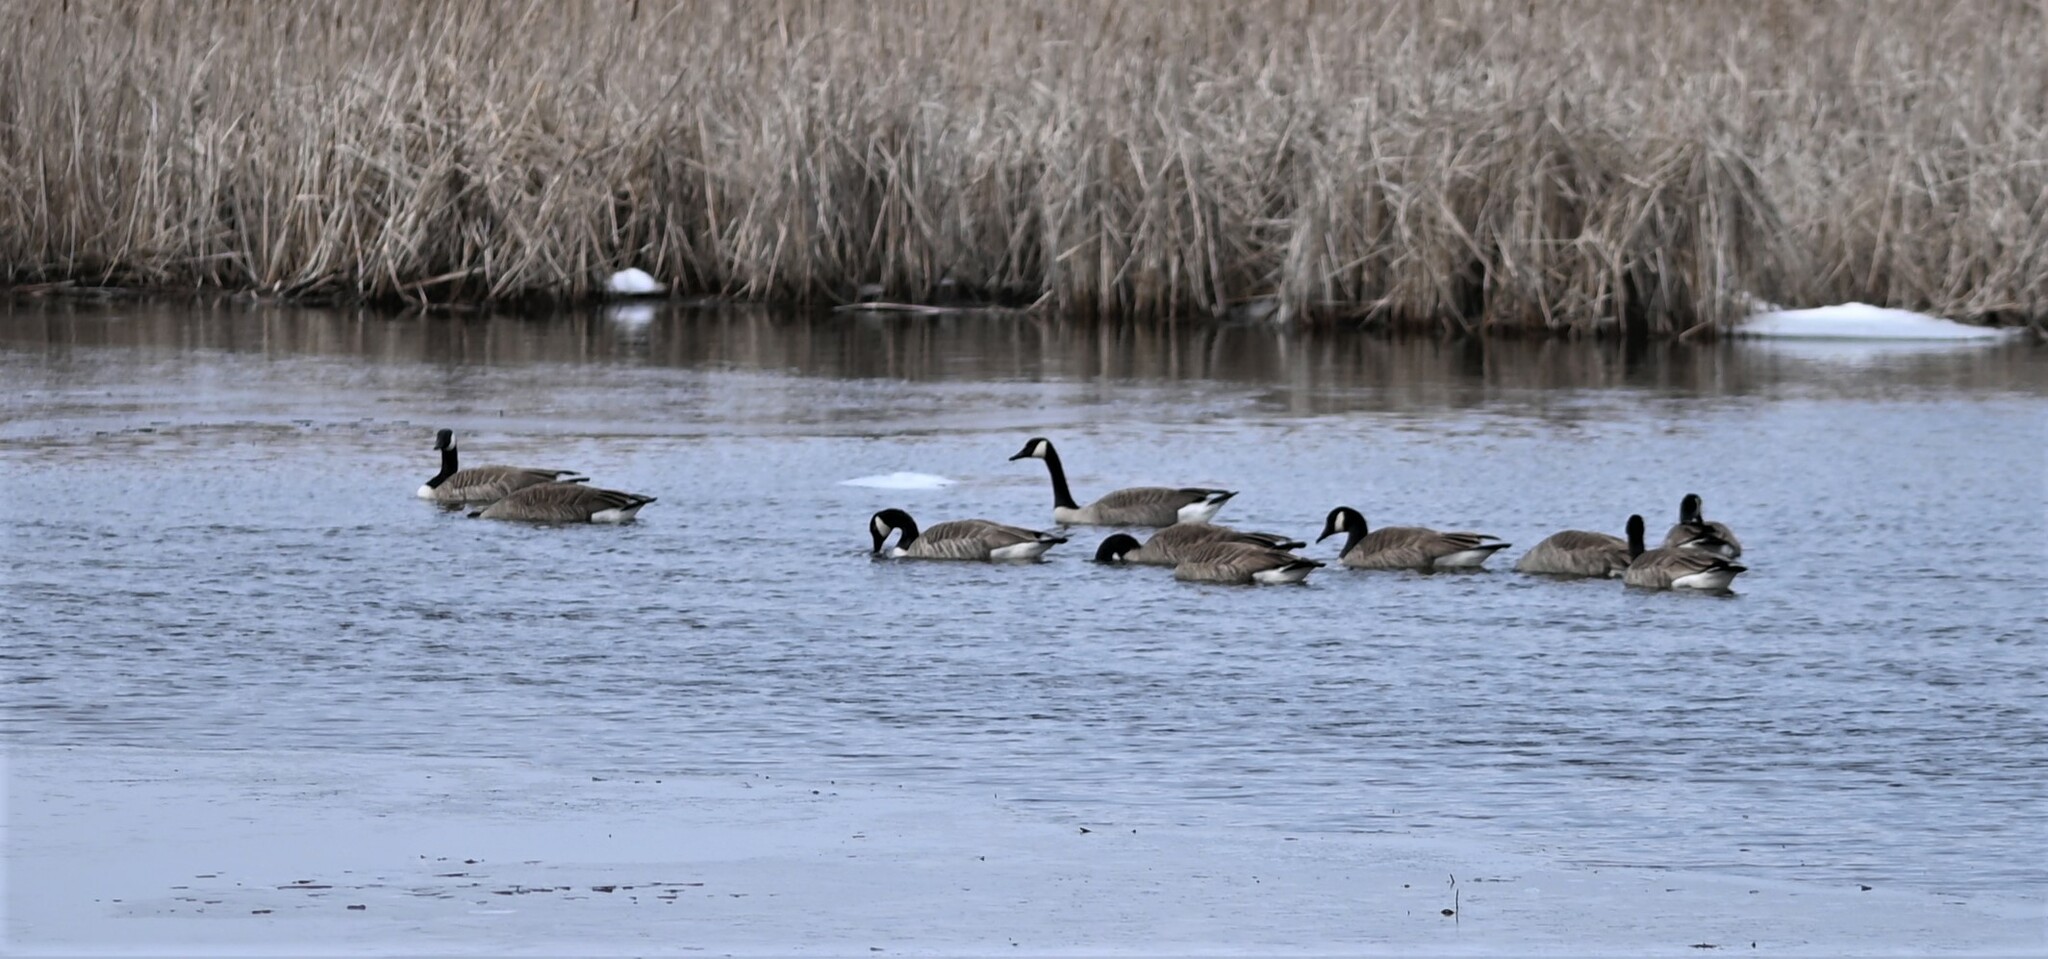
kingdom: Animalia
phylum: Chordata
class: Aves
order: Anseriformes
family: Anatidae
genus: Branta
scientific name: Branta canadensis
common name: Canada goose
